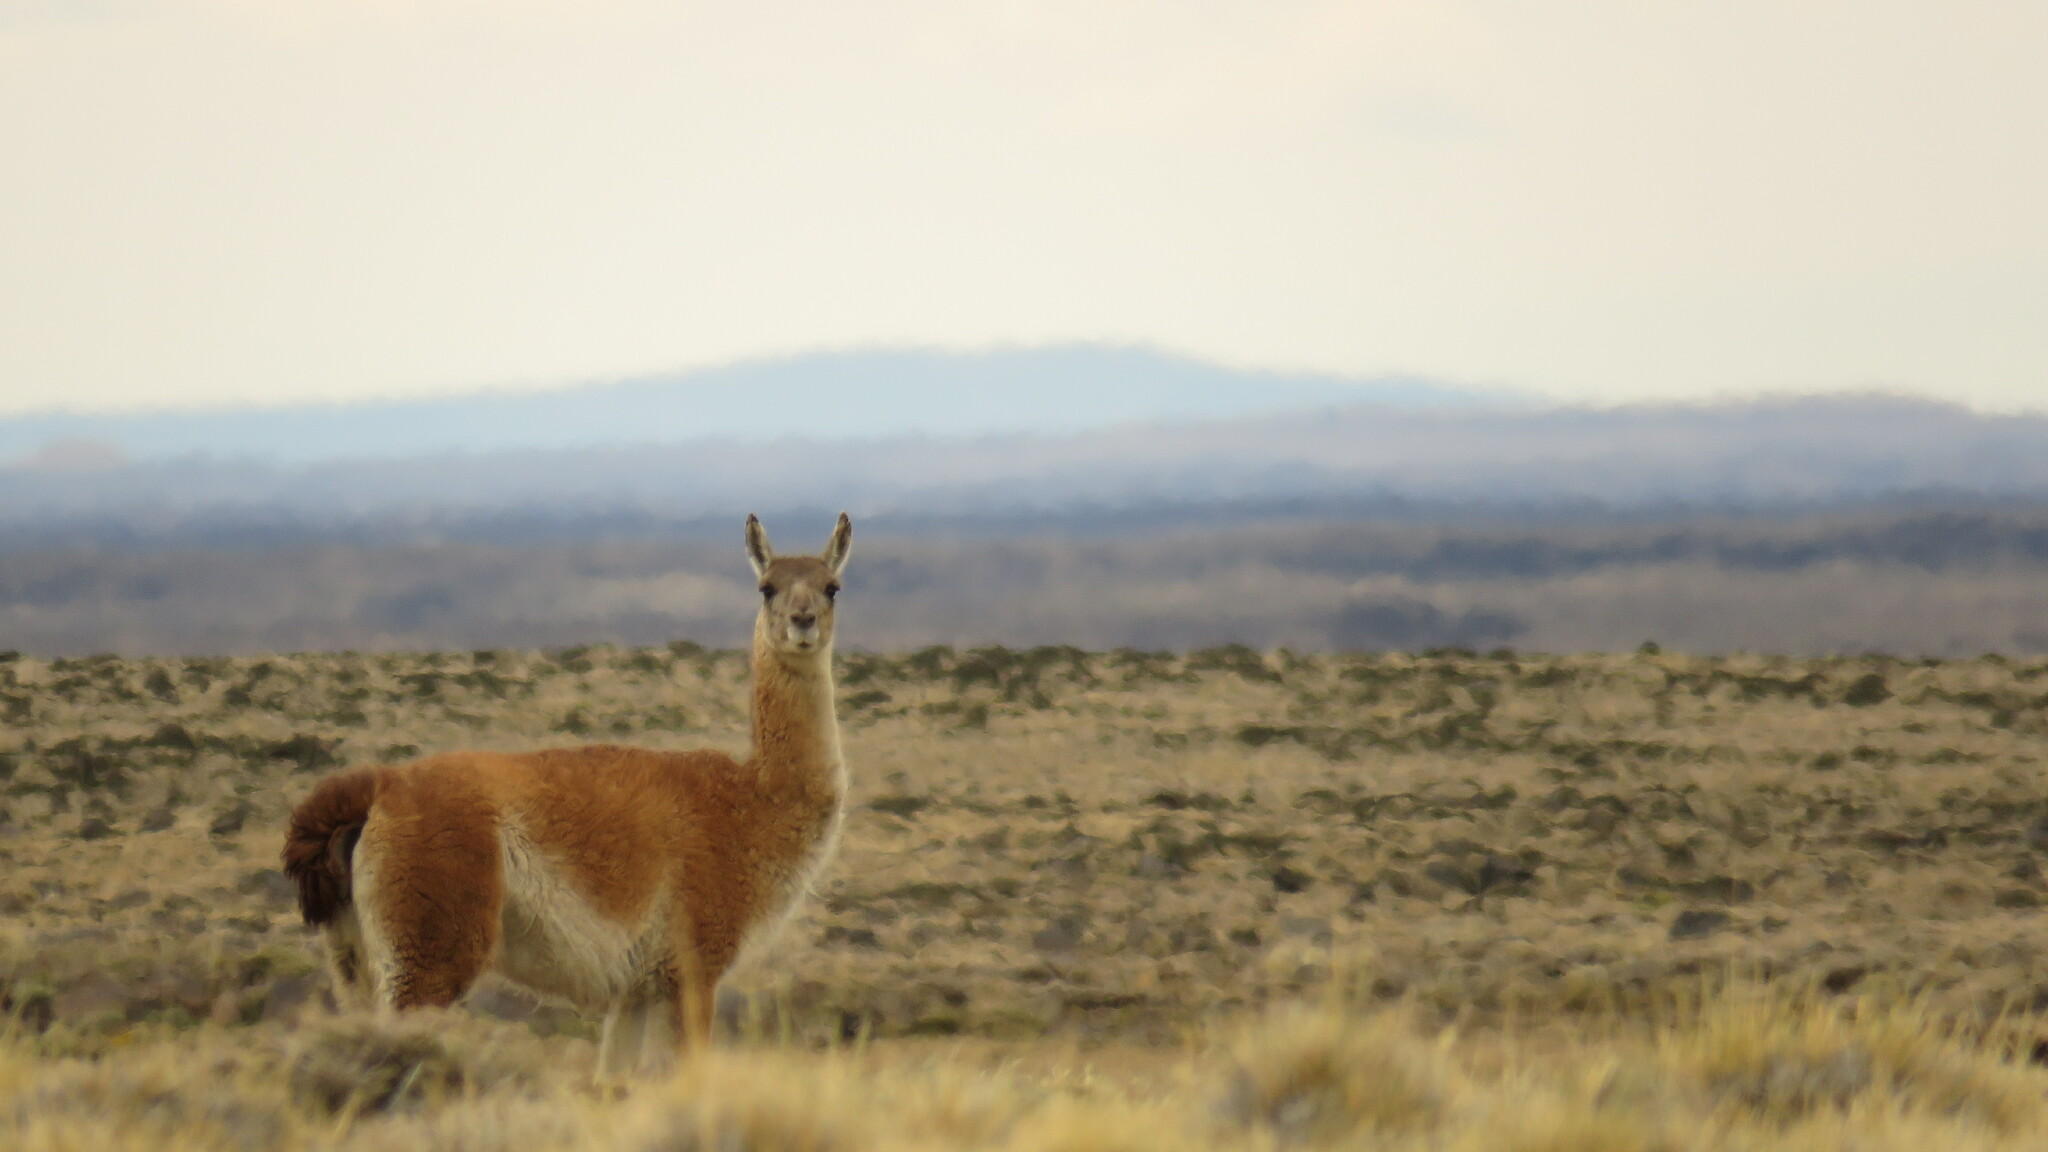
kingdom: Animalia
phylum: Chordata
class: Mammalia
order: Artiodactyla
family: Camelidae
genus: Lama
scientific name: Lama glama
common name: Llama
